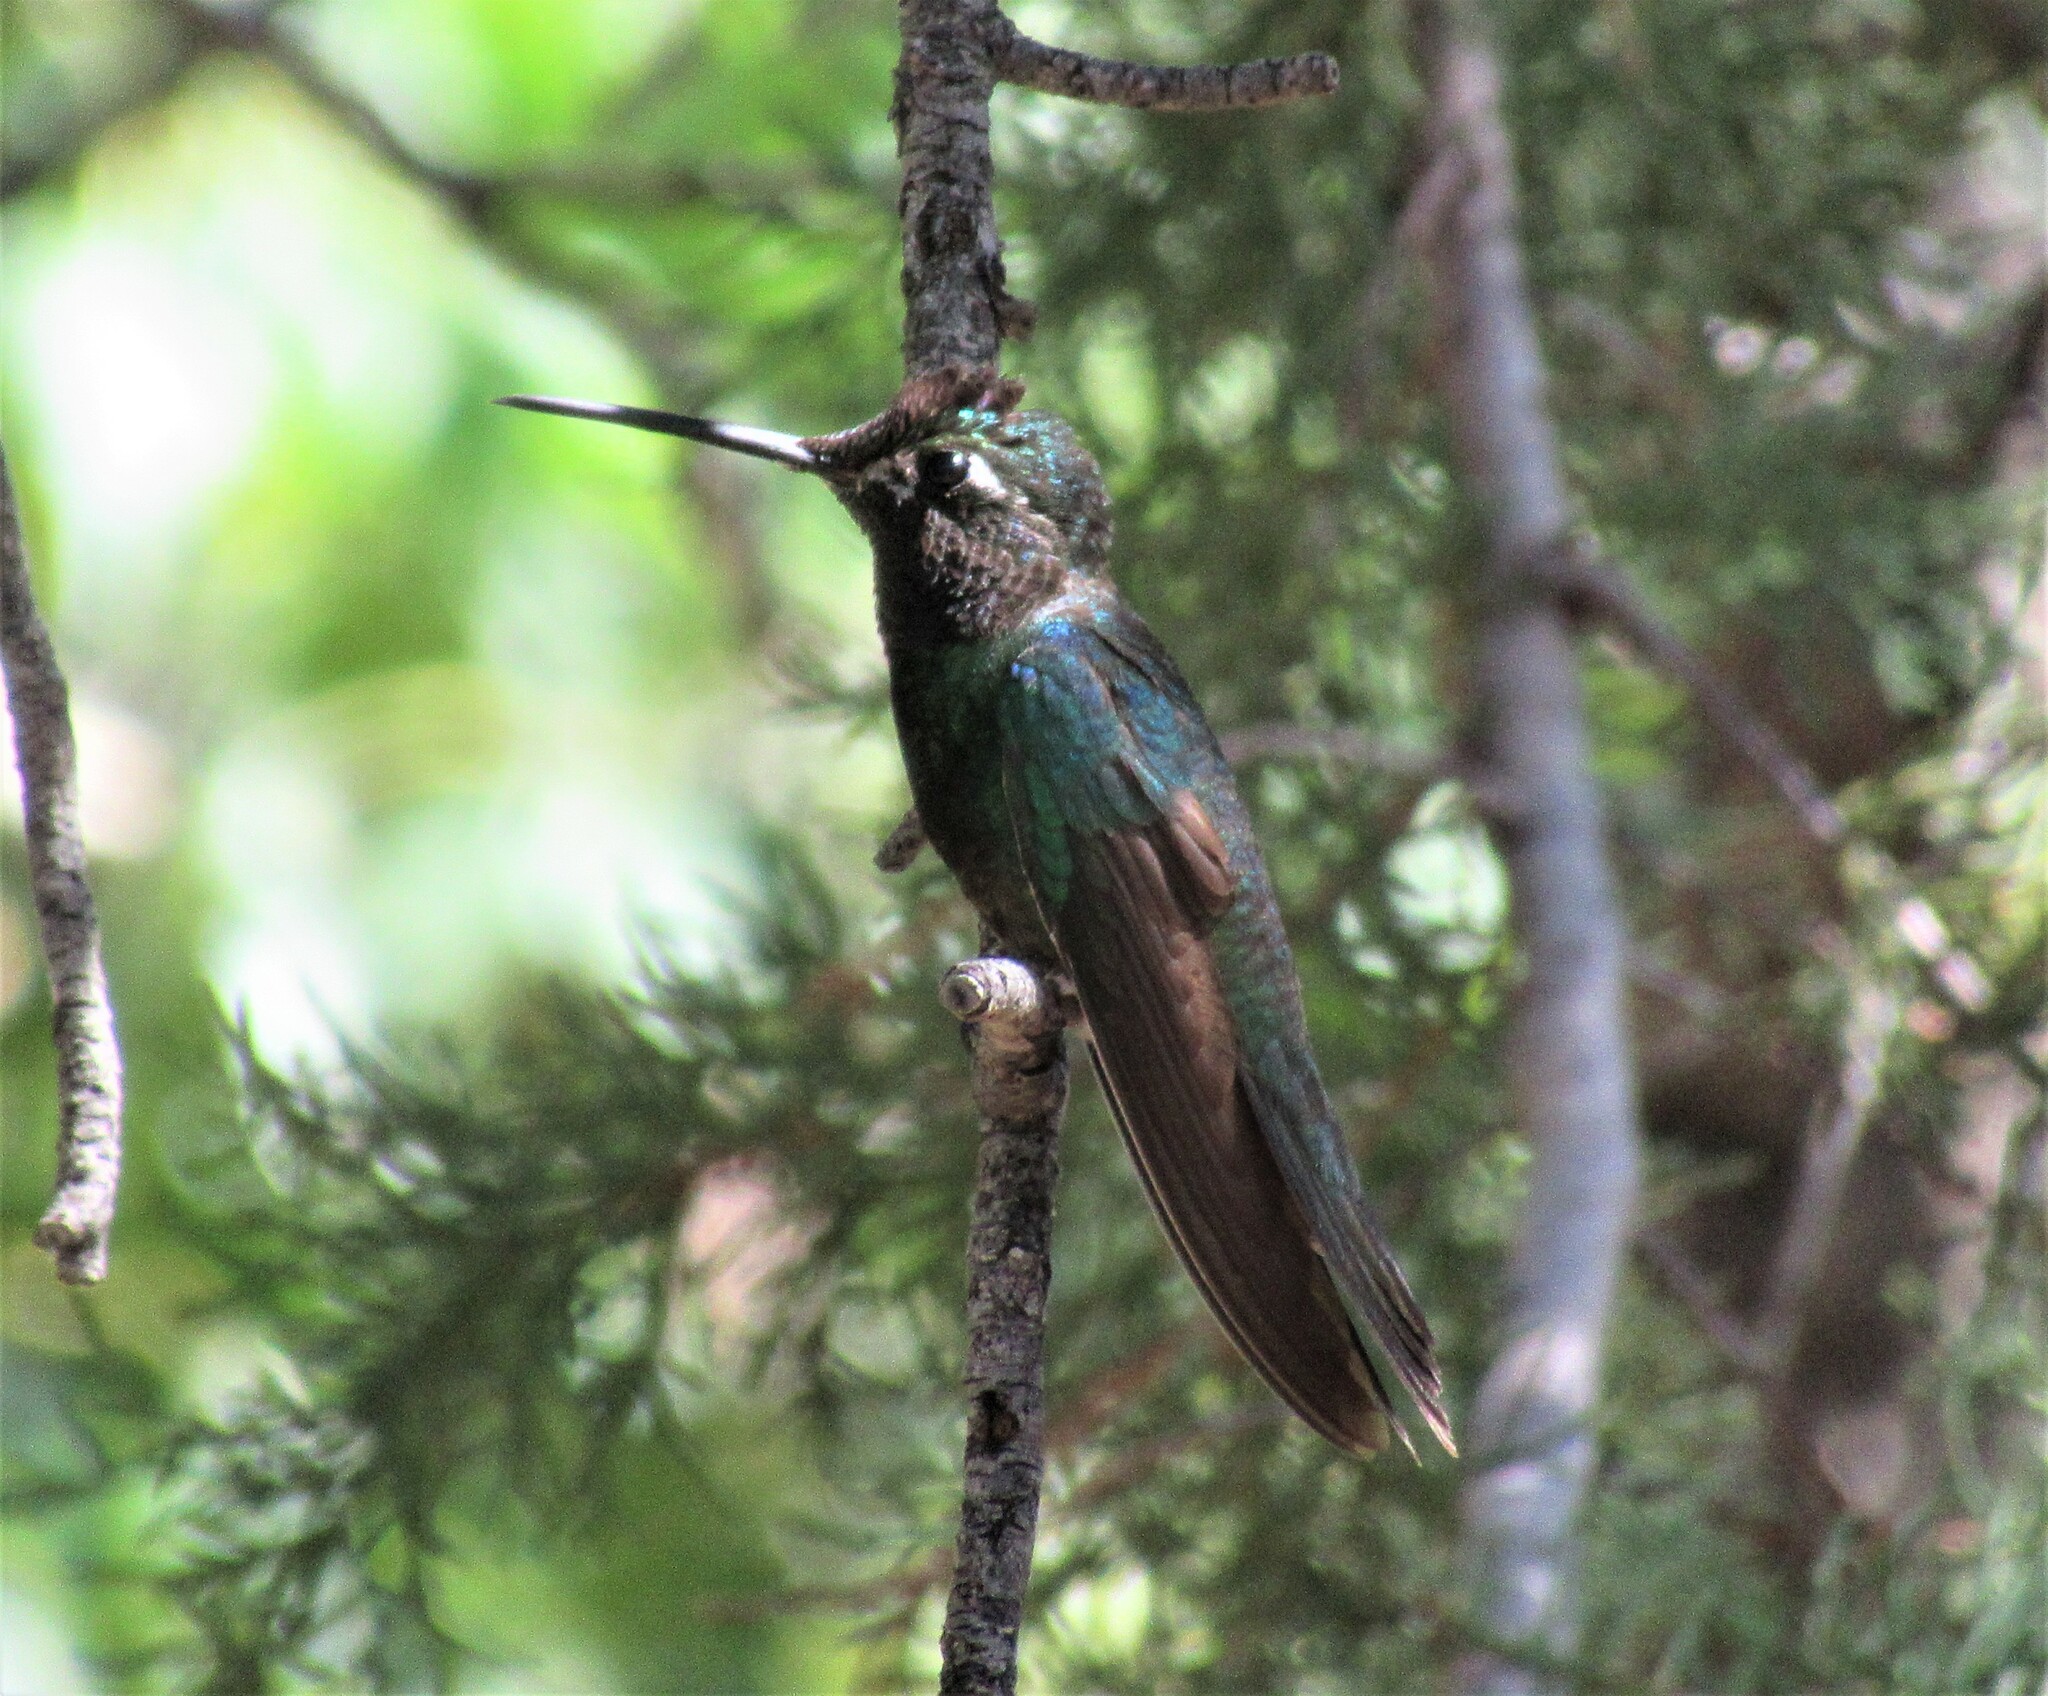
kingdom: Animalia
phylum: Chordata
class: Aves
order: Apodiformes
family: Trochilidae
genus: Eugenes
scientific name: Eugenes fulgens
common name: Magnificent hummingbird
